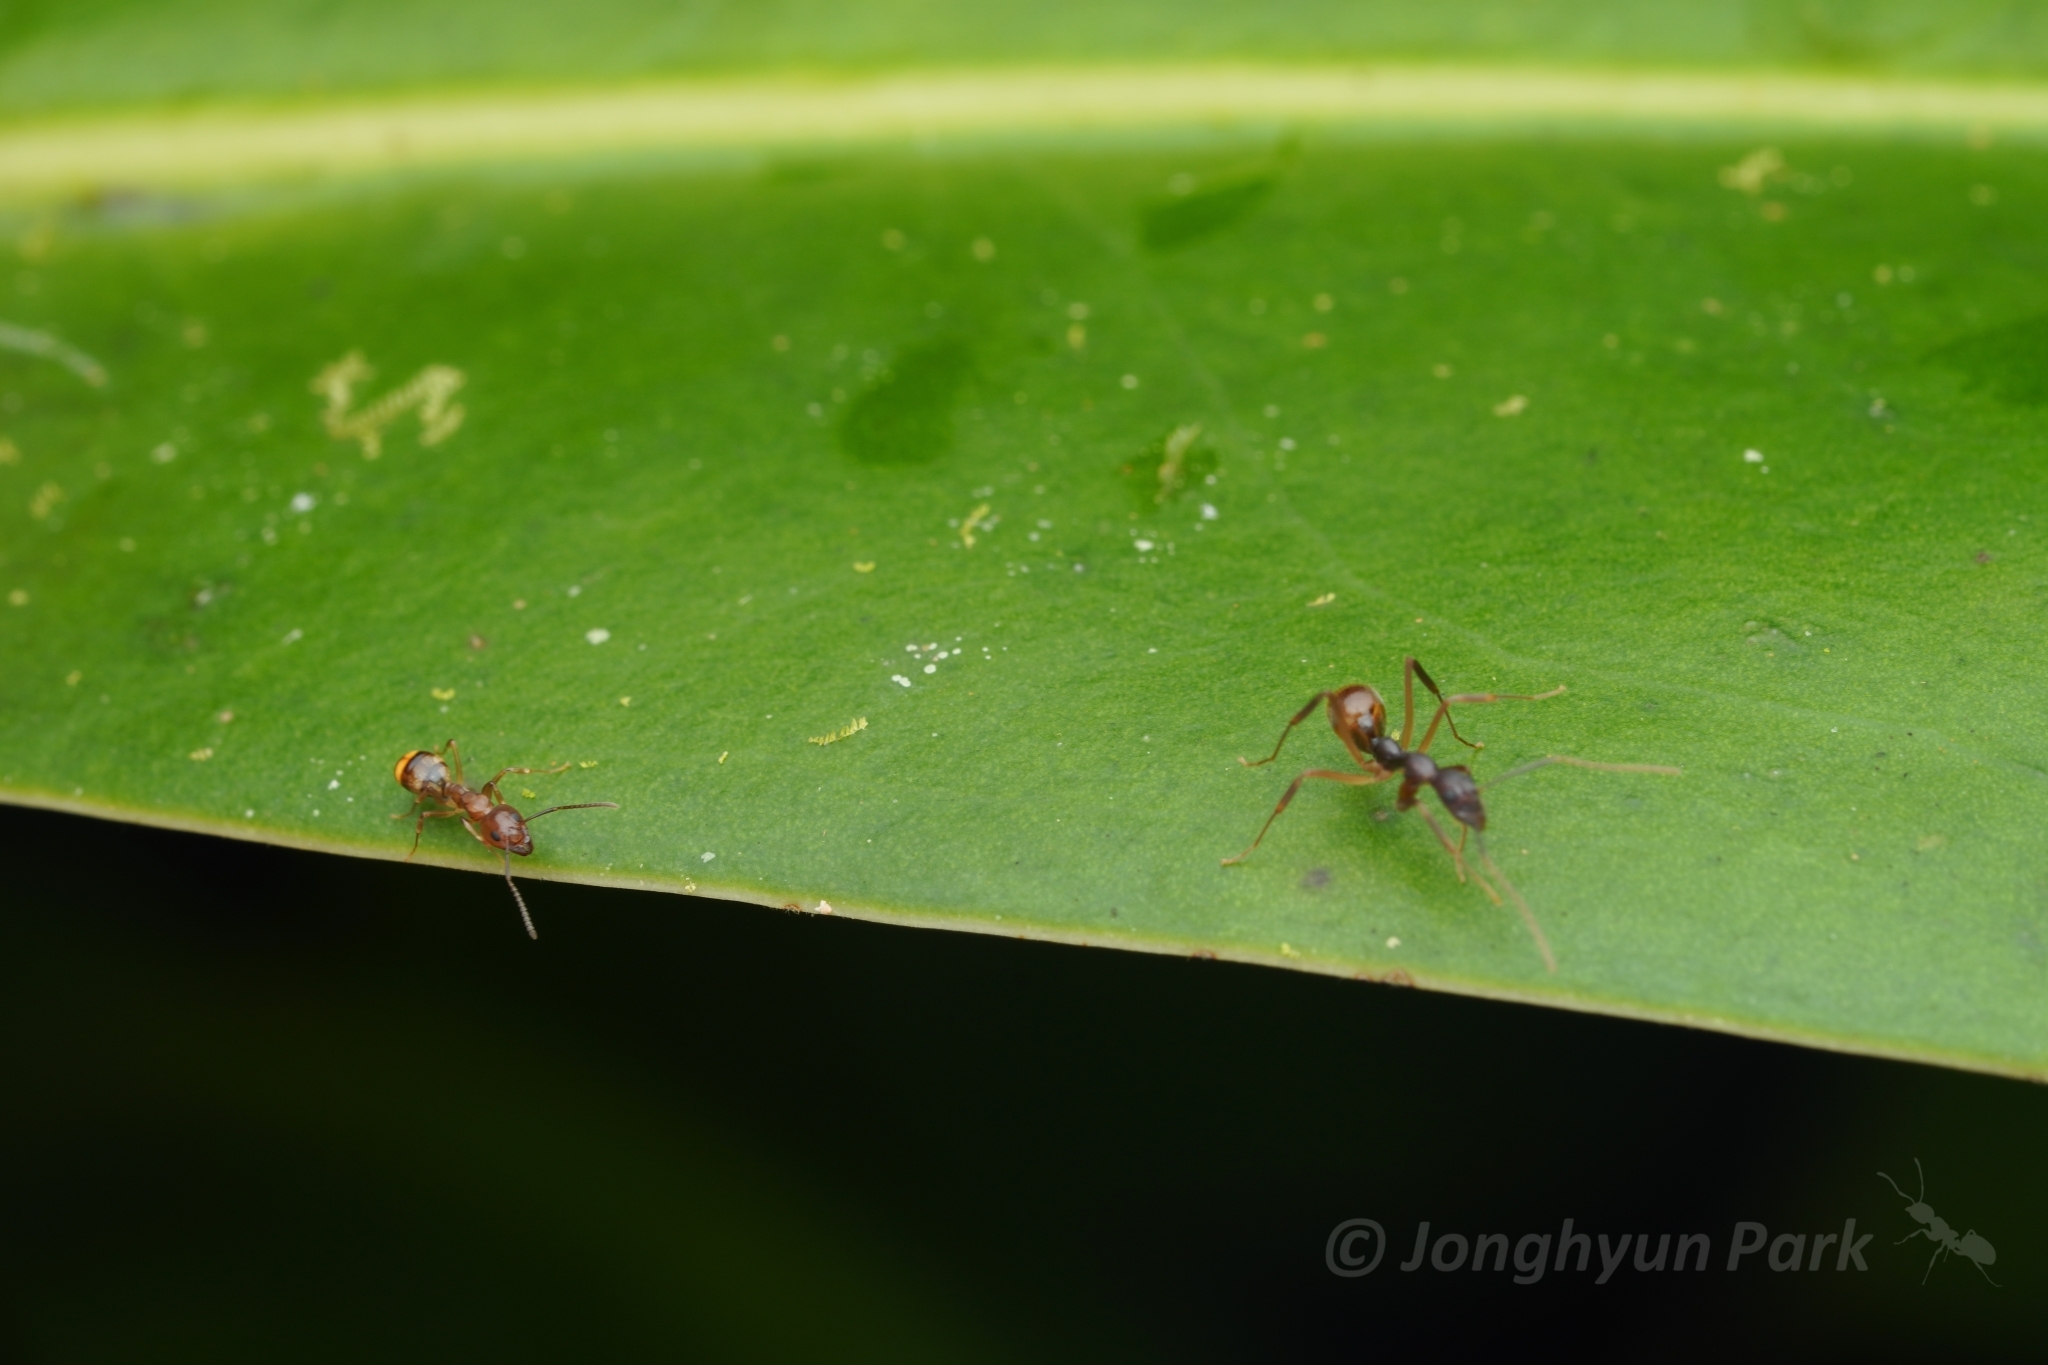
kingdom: Animalia
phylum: Arthropoda
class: Insecta
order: Hymenoptera
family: Formicidae
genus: Dolichoderus
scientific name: Dolichoderus imitator
